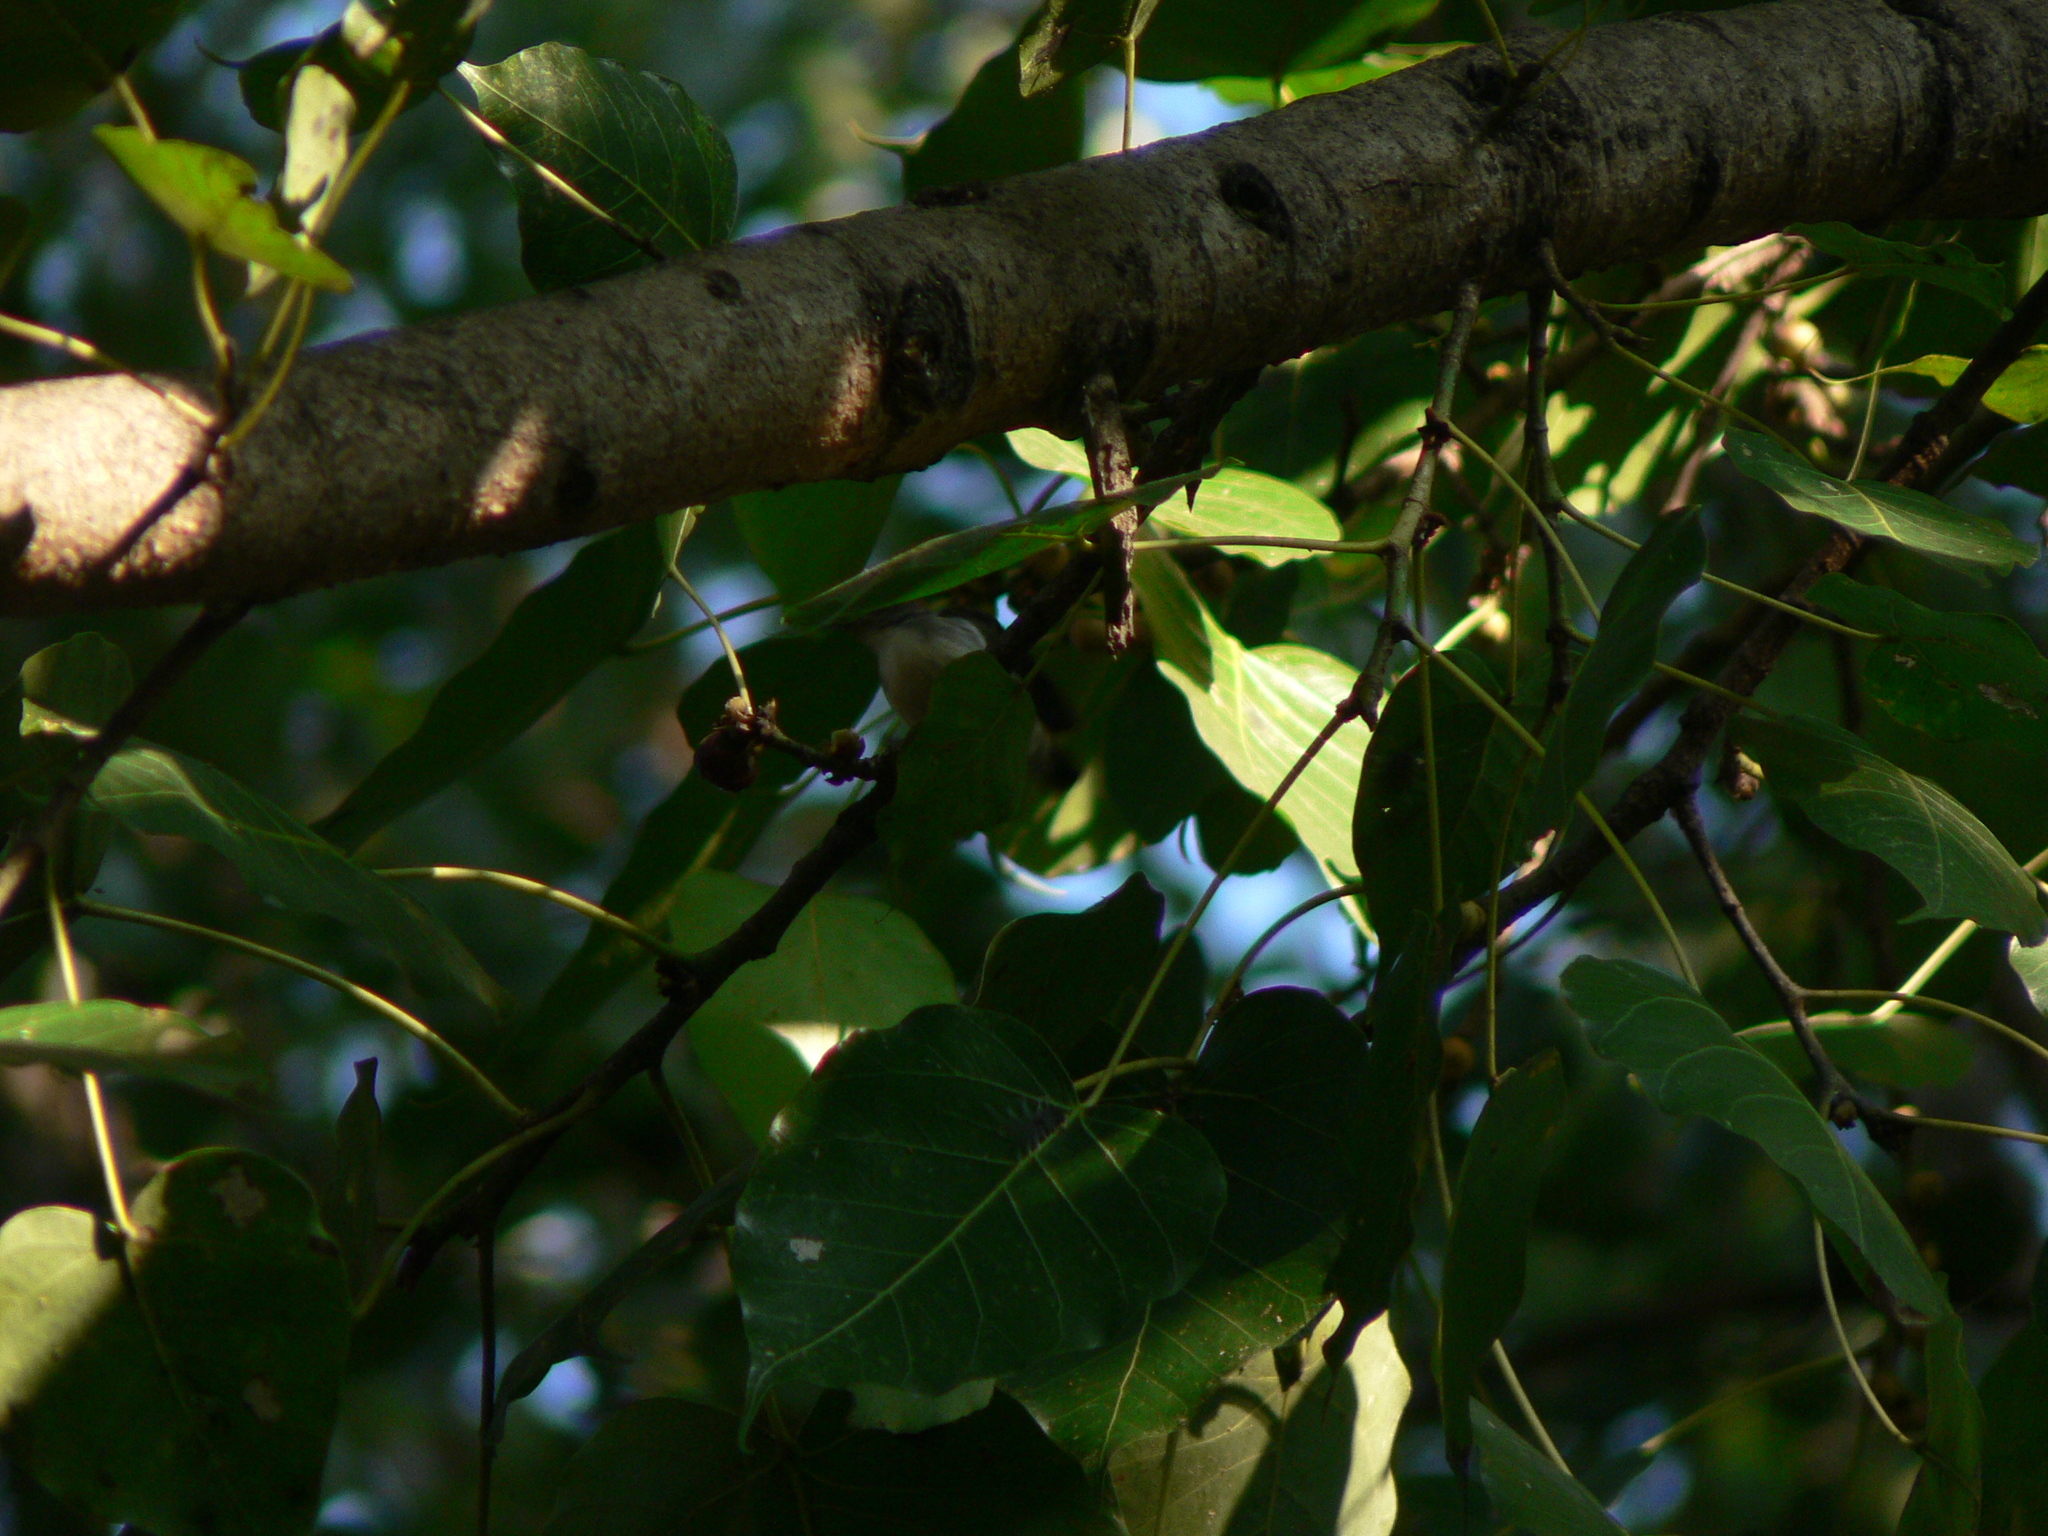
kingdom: Animalia
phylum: Chordata
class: Aves
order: Passeriformes
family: Dicaeidae
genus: Dicaeum
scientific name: Dicaeum cruentatum
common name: Scarlet-backed flowerpecker
